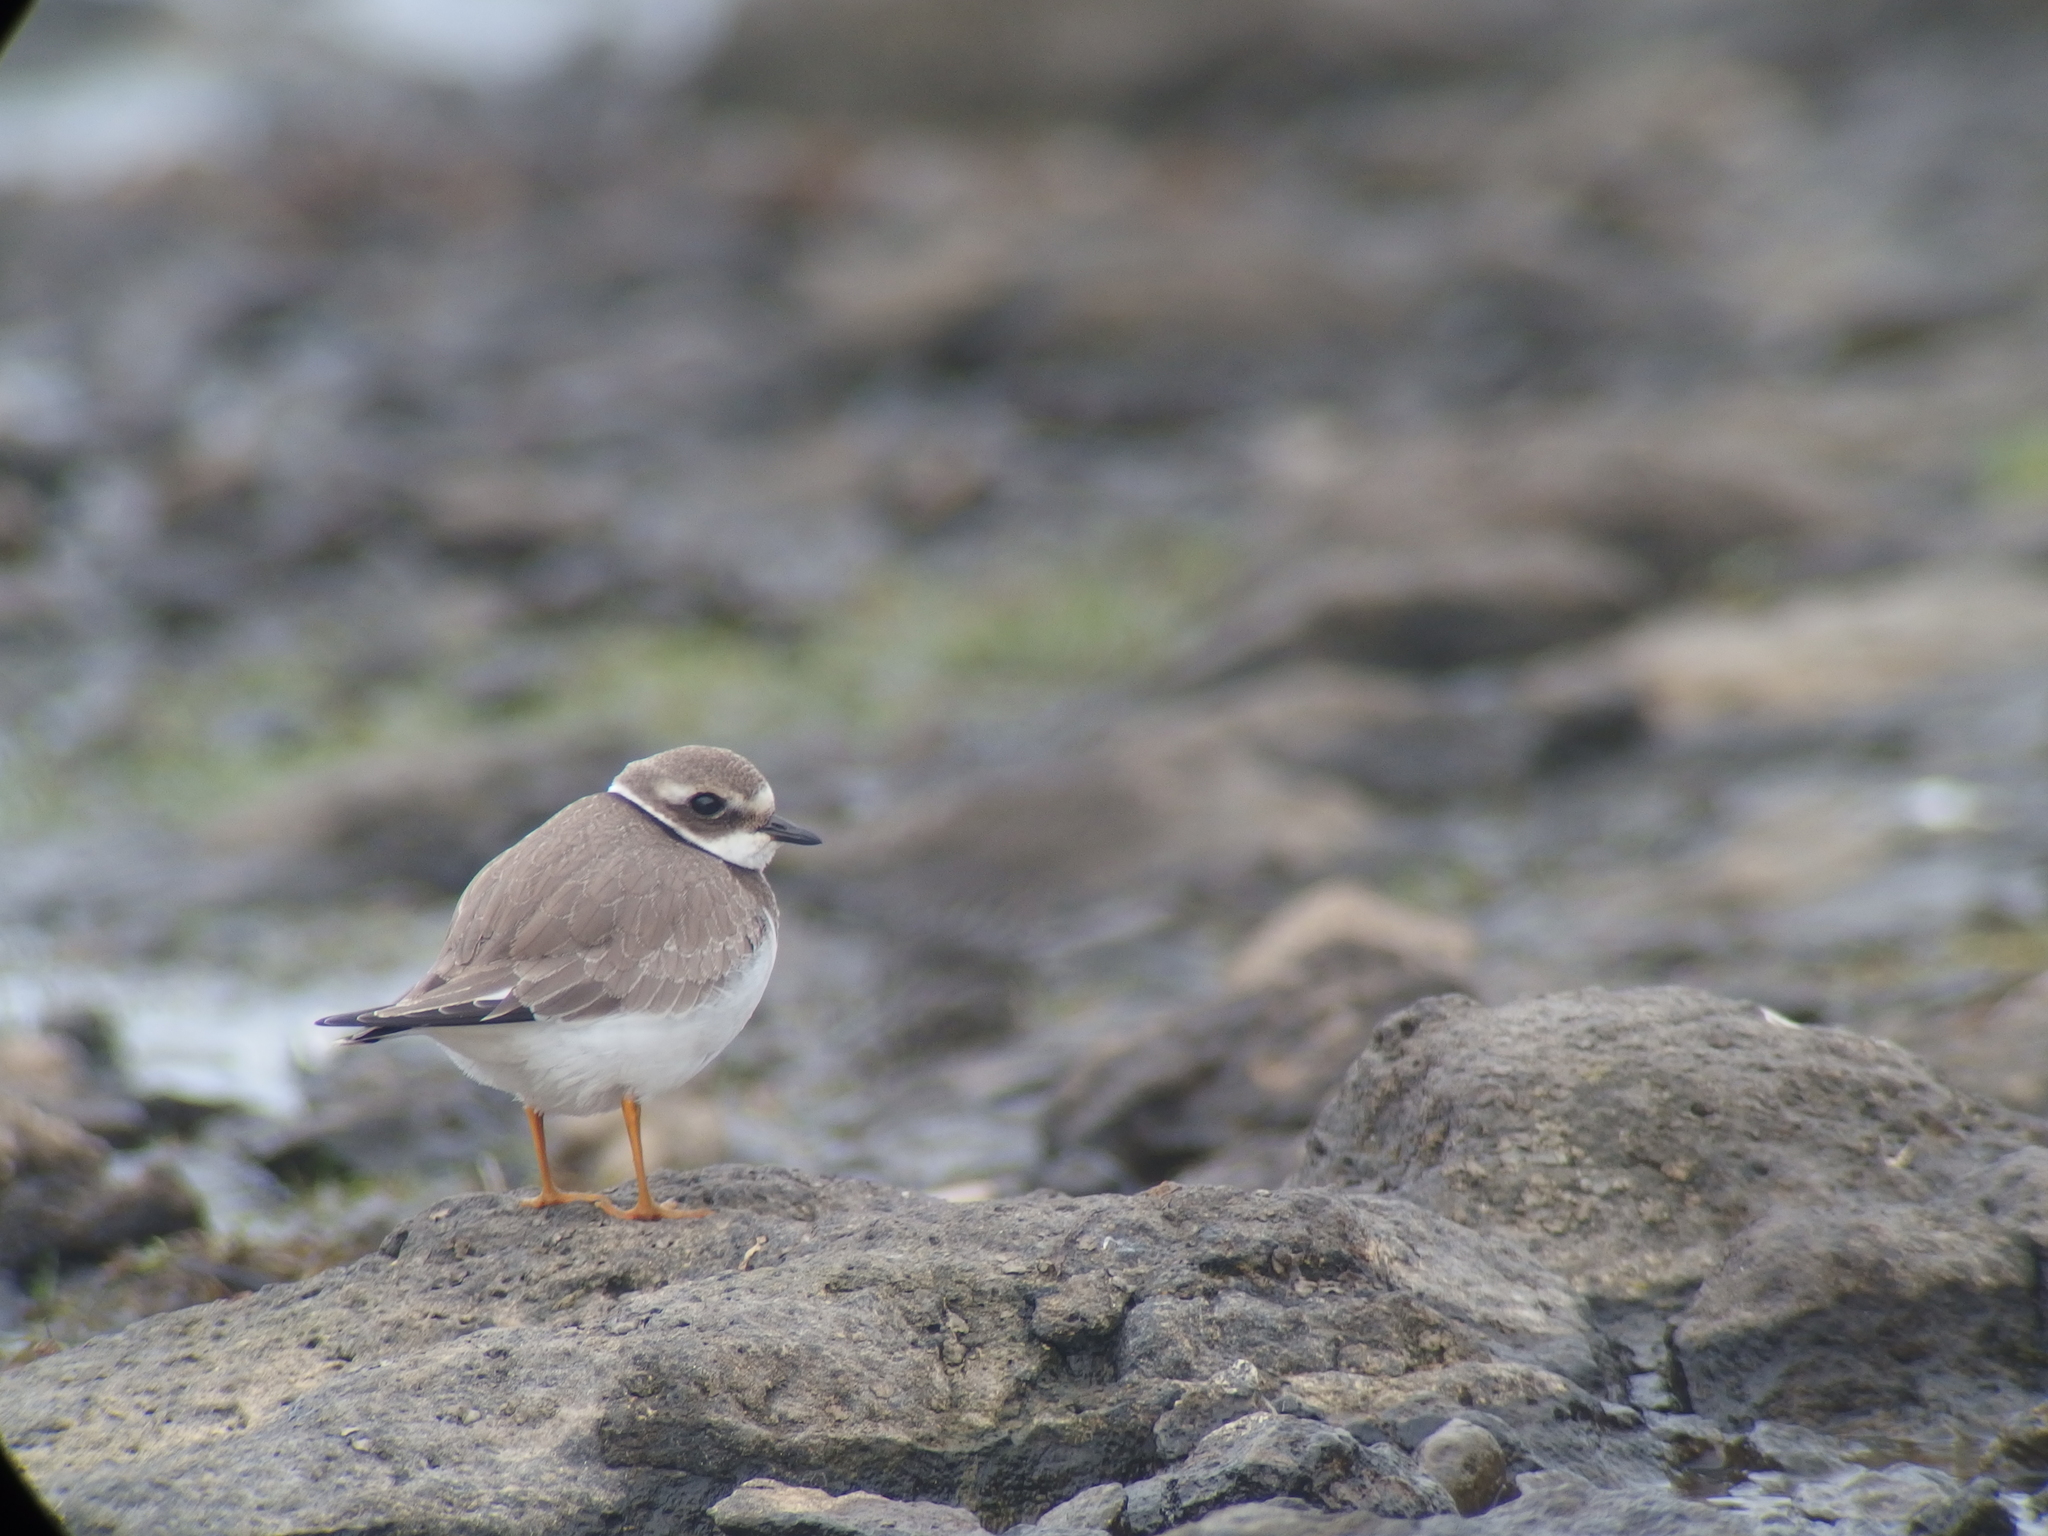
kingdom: Animalia
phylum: Chordata
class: Aves
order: Charadriiformes
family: Charadriidae
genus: Charadrius
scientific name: Charadrius hiaticula
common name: Common ringed plover
